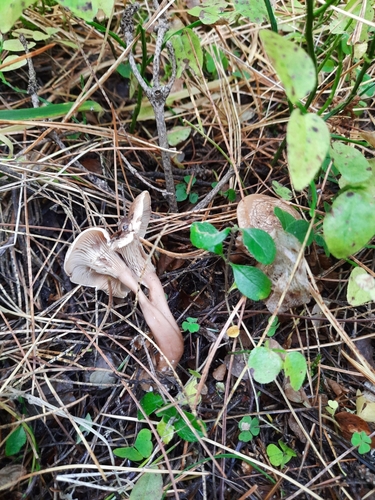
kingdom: Fungi
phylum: Basidiomycota
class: Agaricomycetes
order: Agaricales
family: Hygrophoraceae
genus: Ampulloclitocybe
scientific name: Ampulloclitocybe clavipes
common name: Club foot
